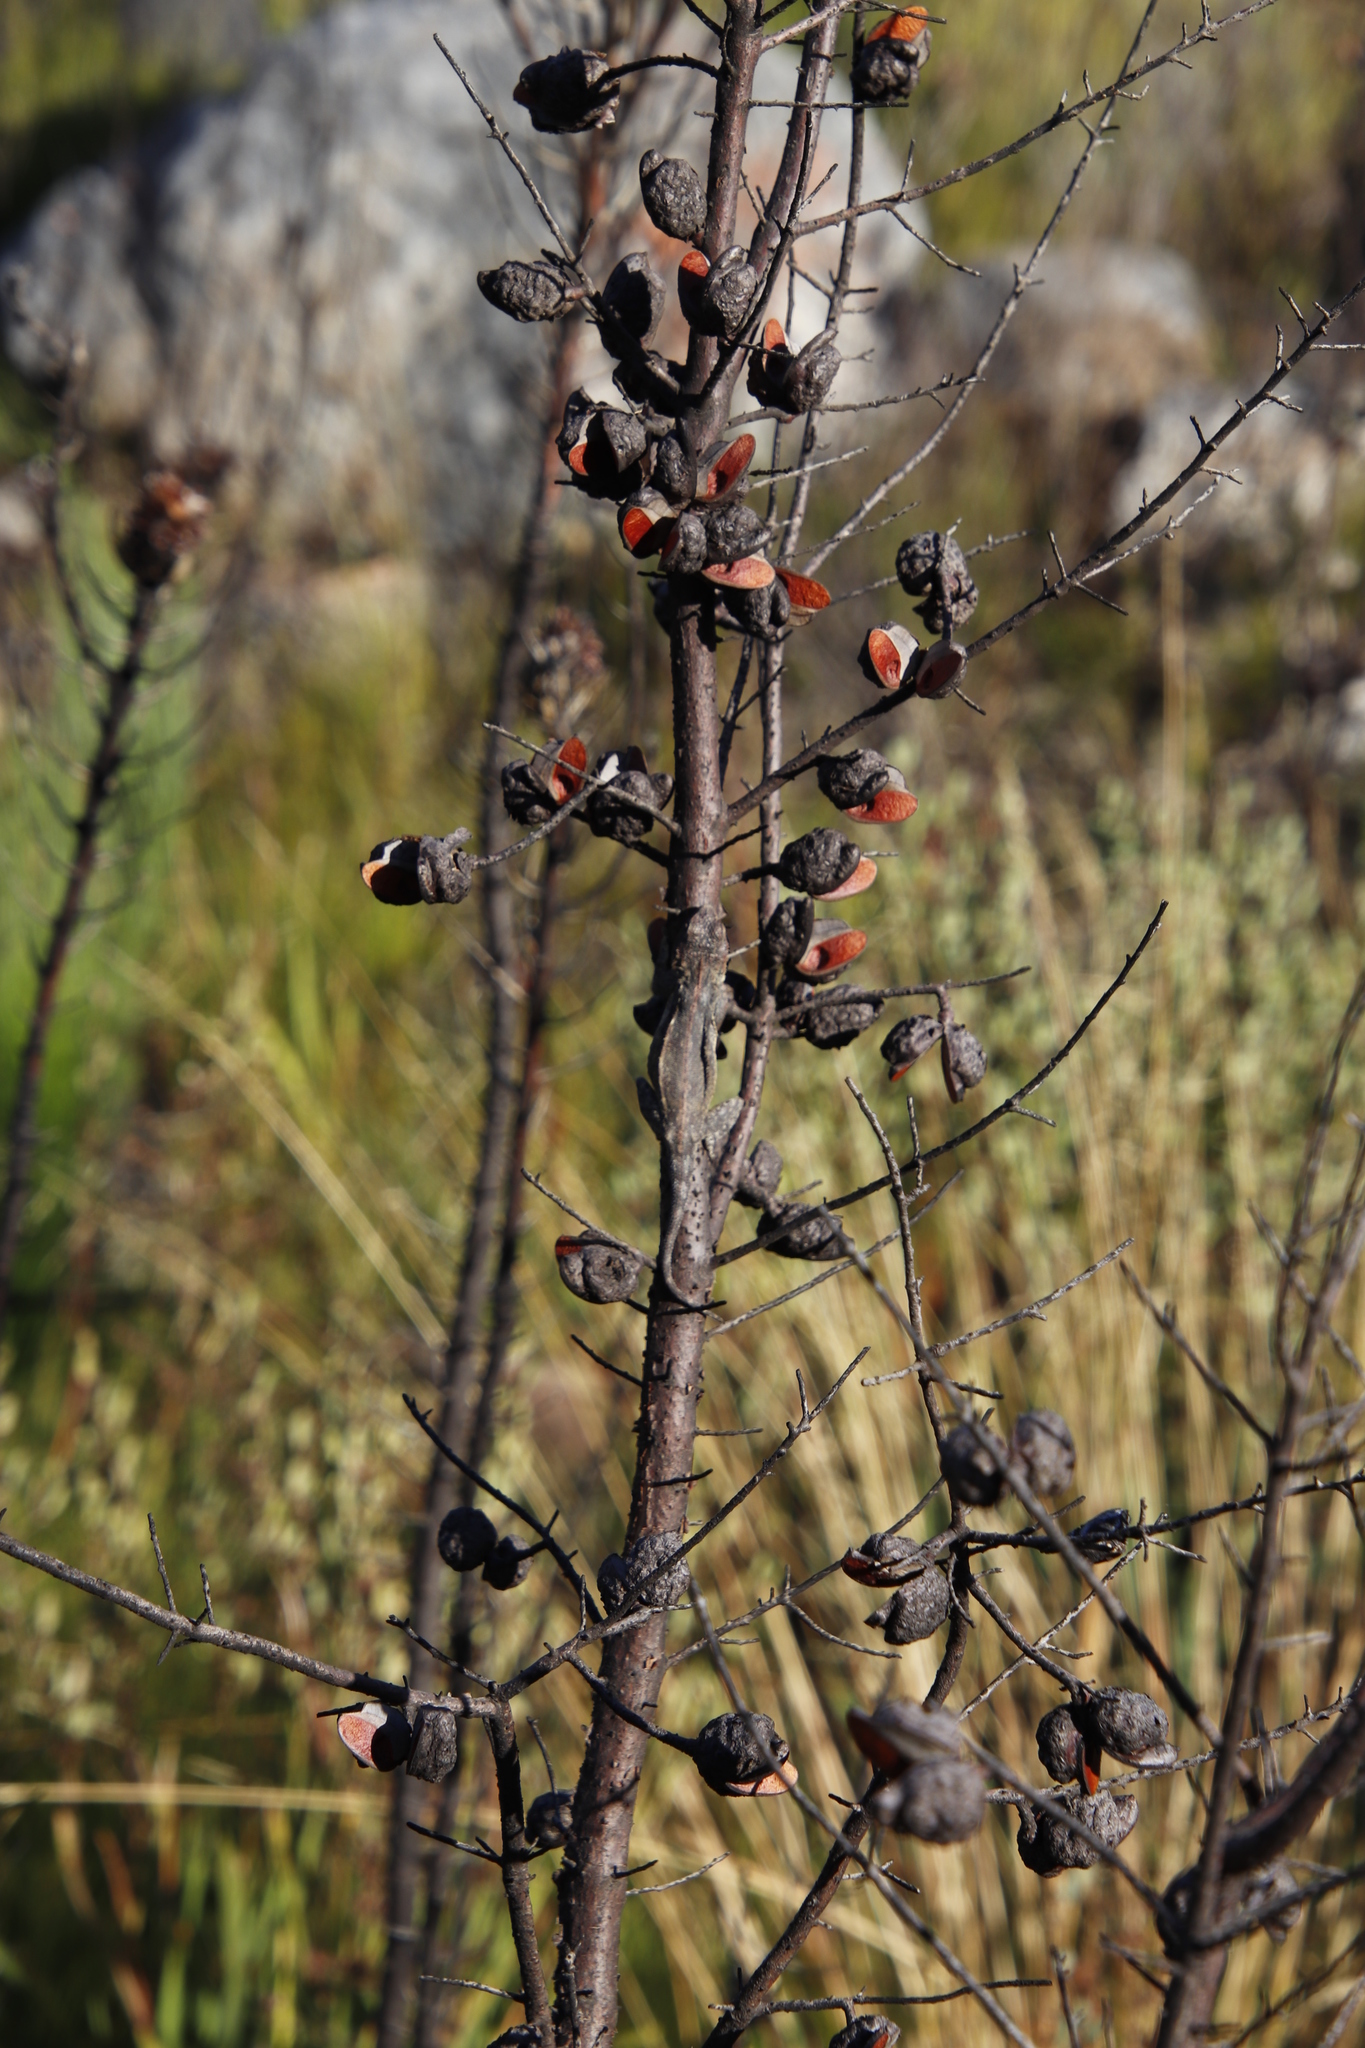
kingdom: Plantae
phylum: Tracheophyta
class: Magnoliopsida
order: Proteales
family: Proteaceae
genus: Hakea
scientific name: Hakea sericea
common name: Needle bush
